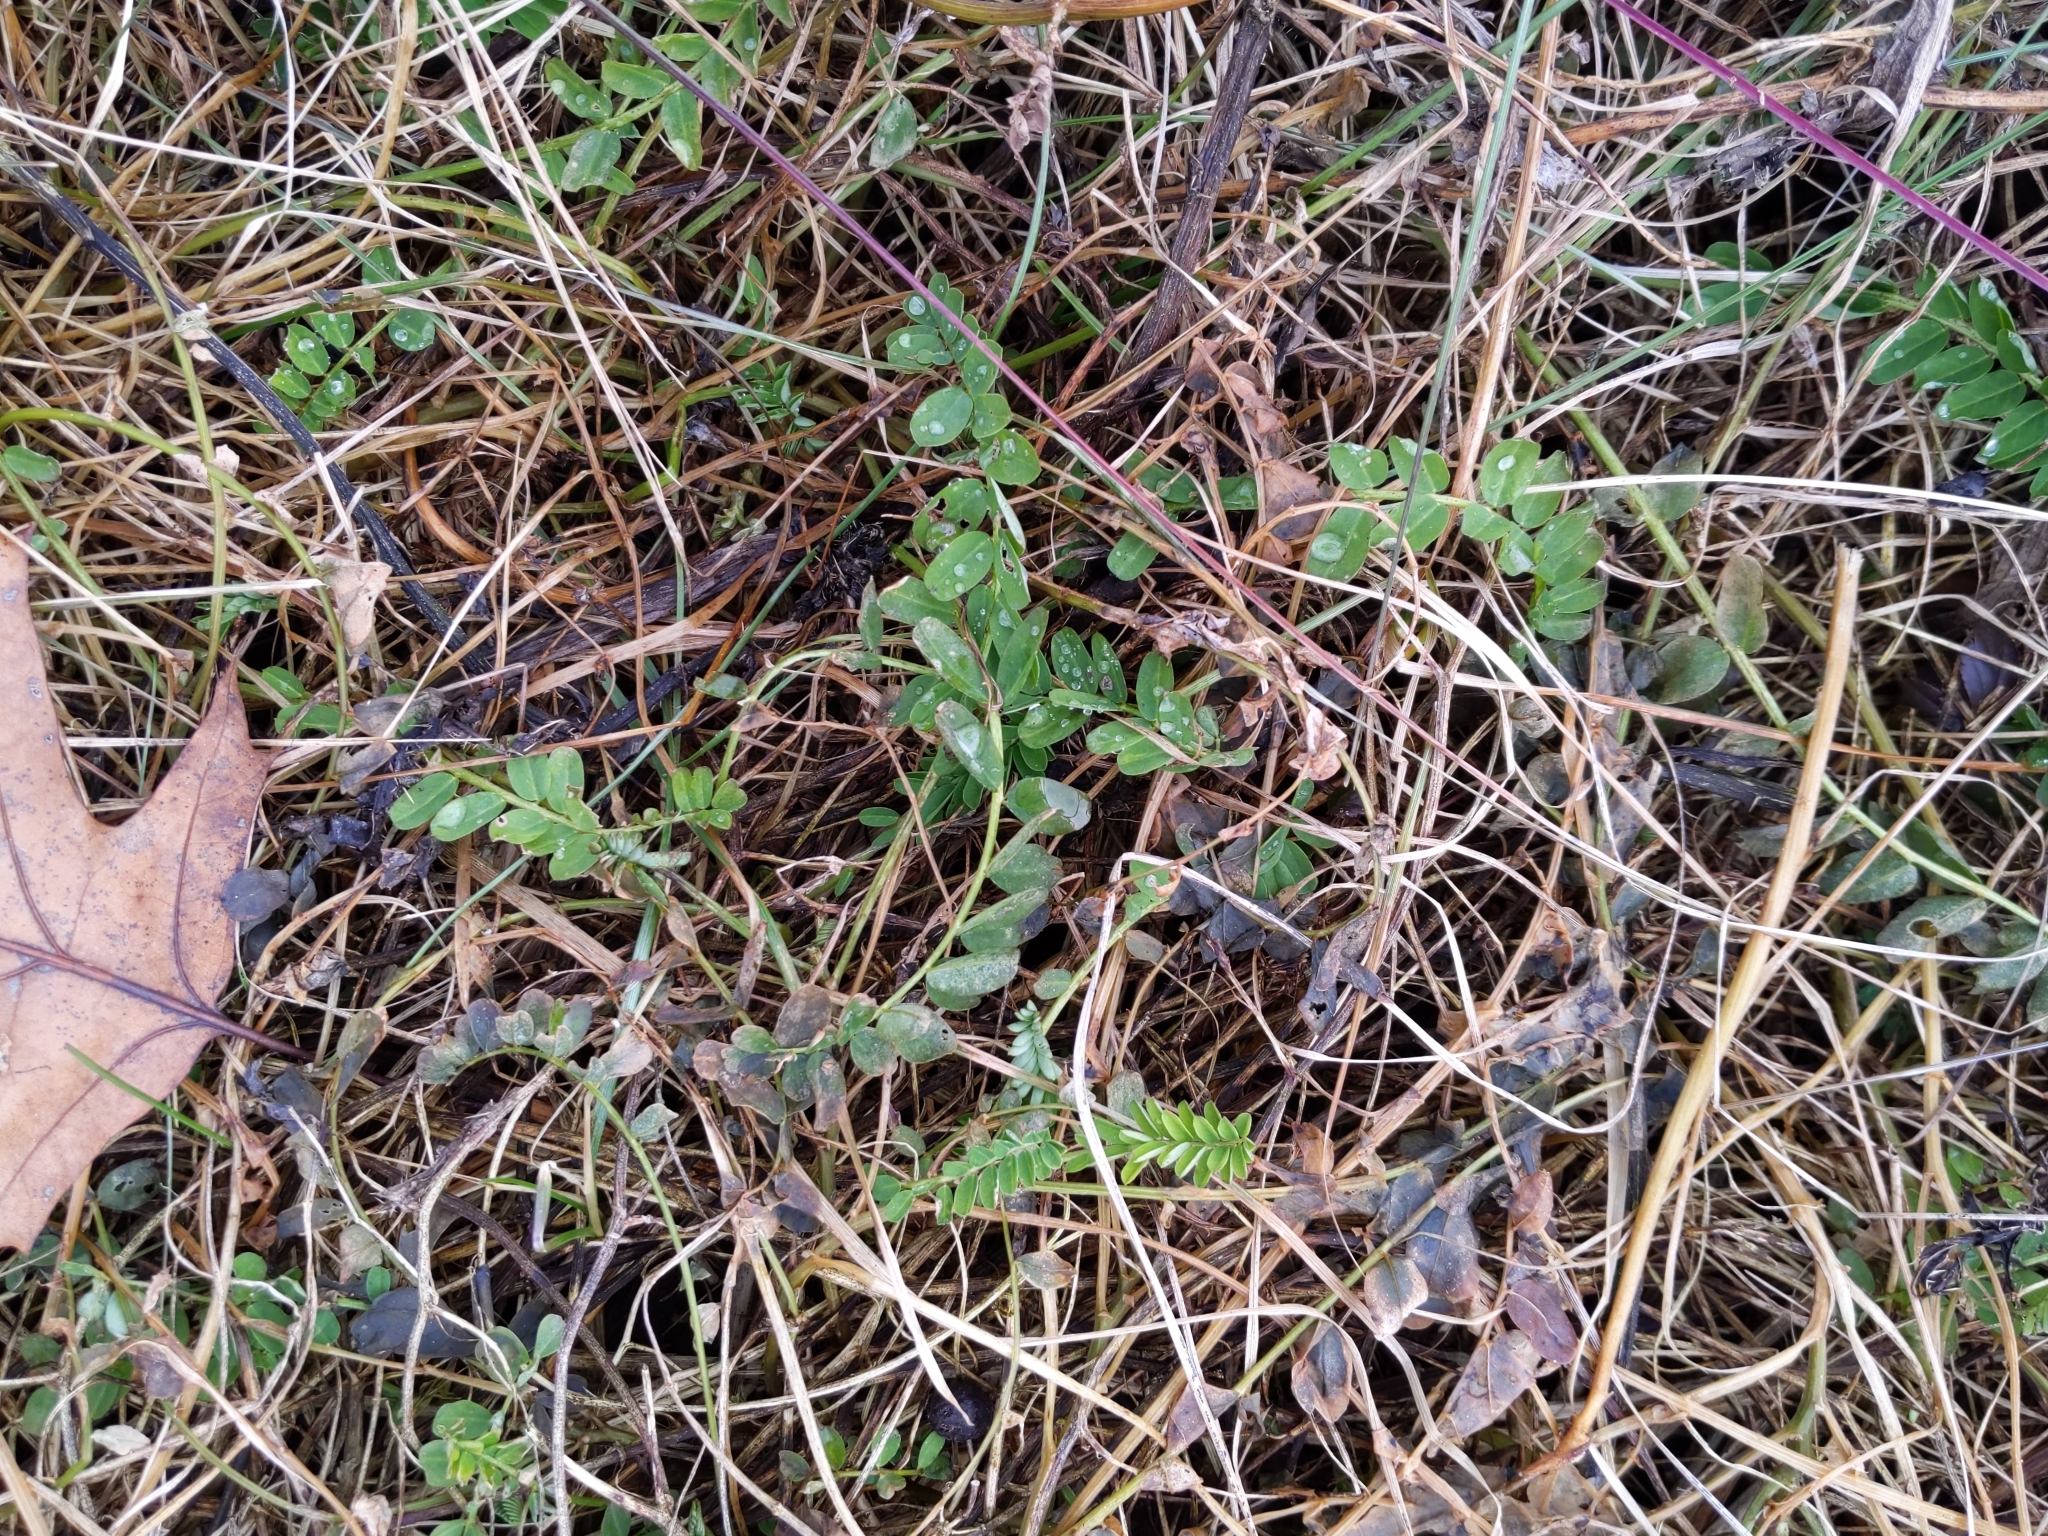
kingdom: Plantae
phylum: Tracheophyta
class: Magnoliopsida
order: Fabales
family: Fabaceae
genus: Coronilla
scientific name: Coronilla varia
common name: Crownvetch
